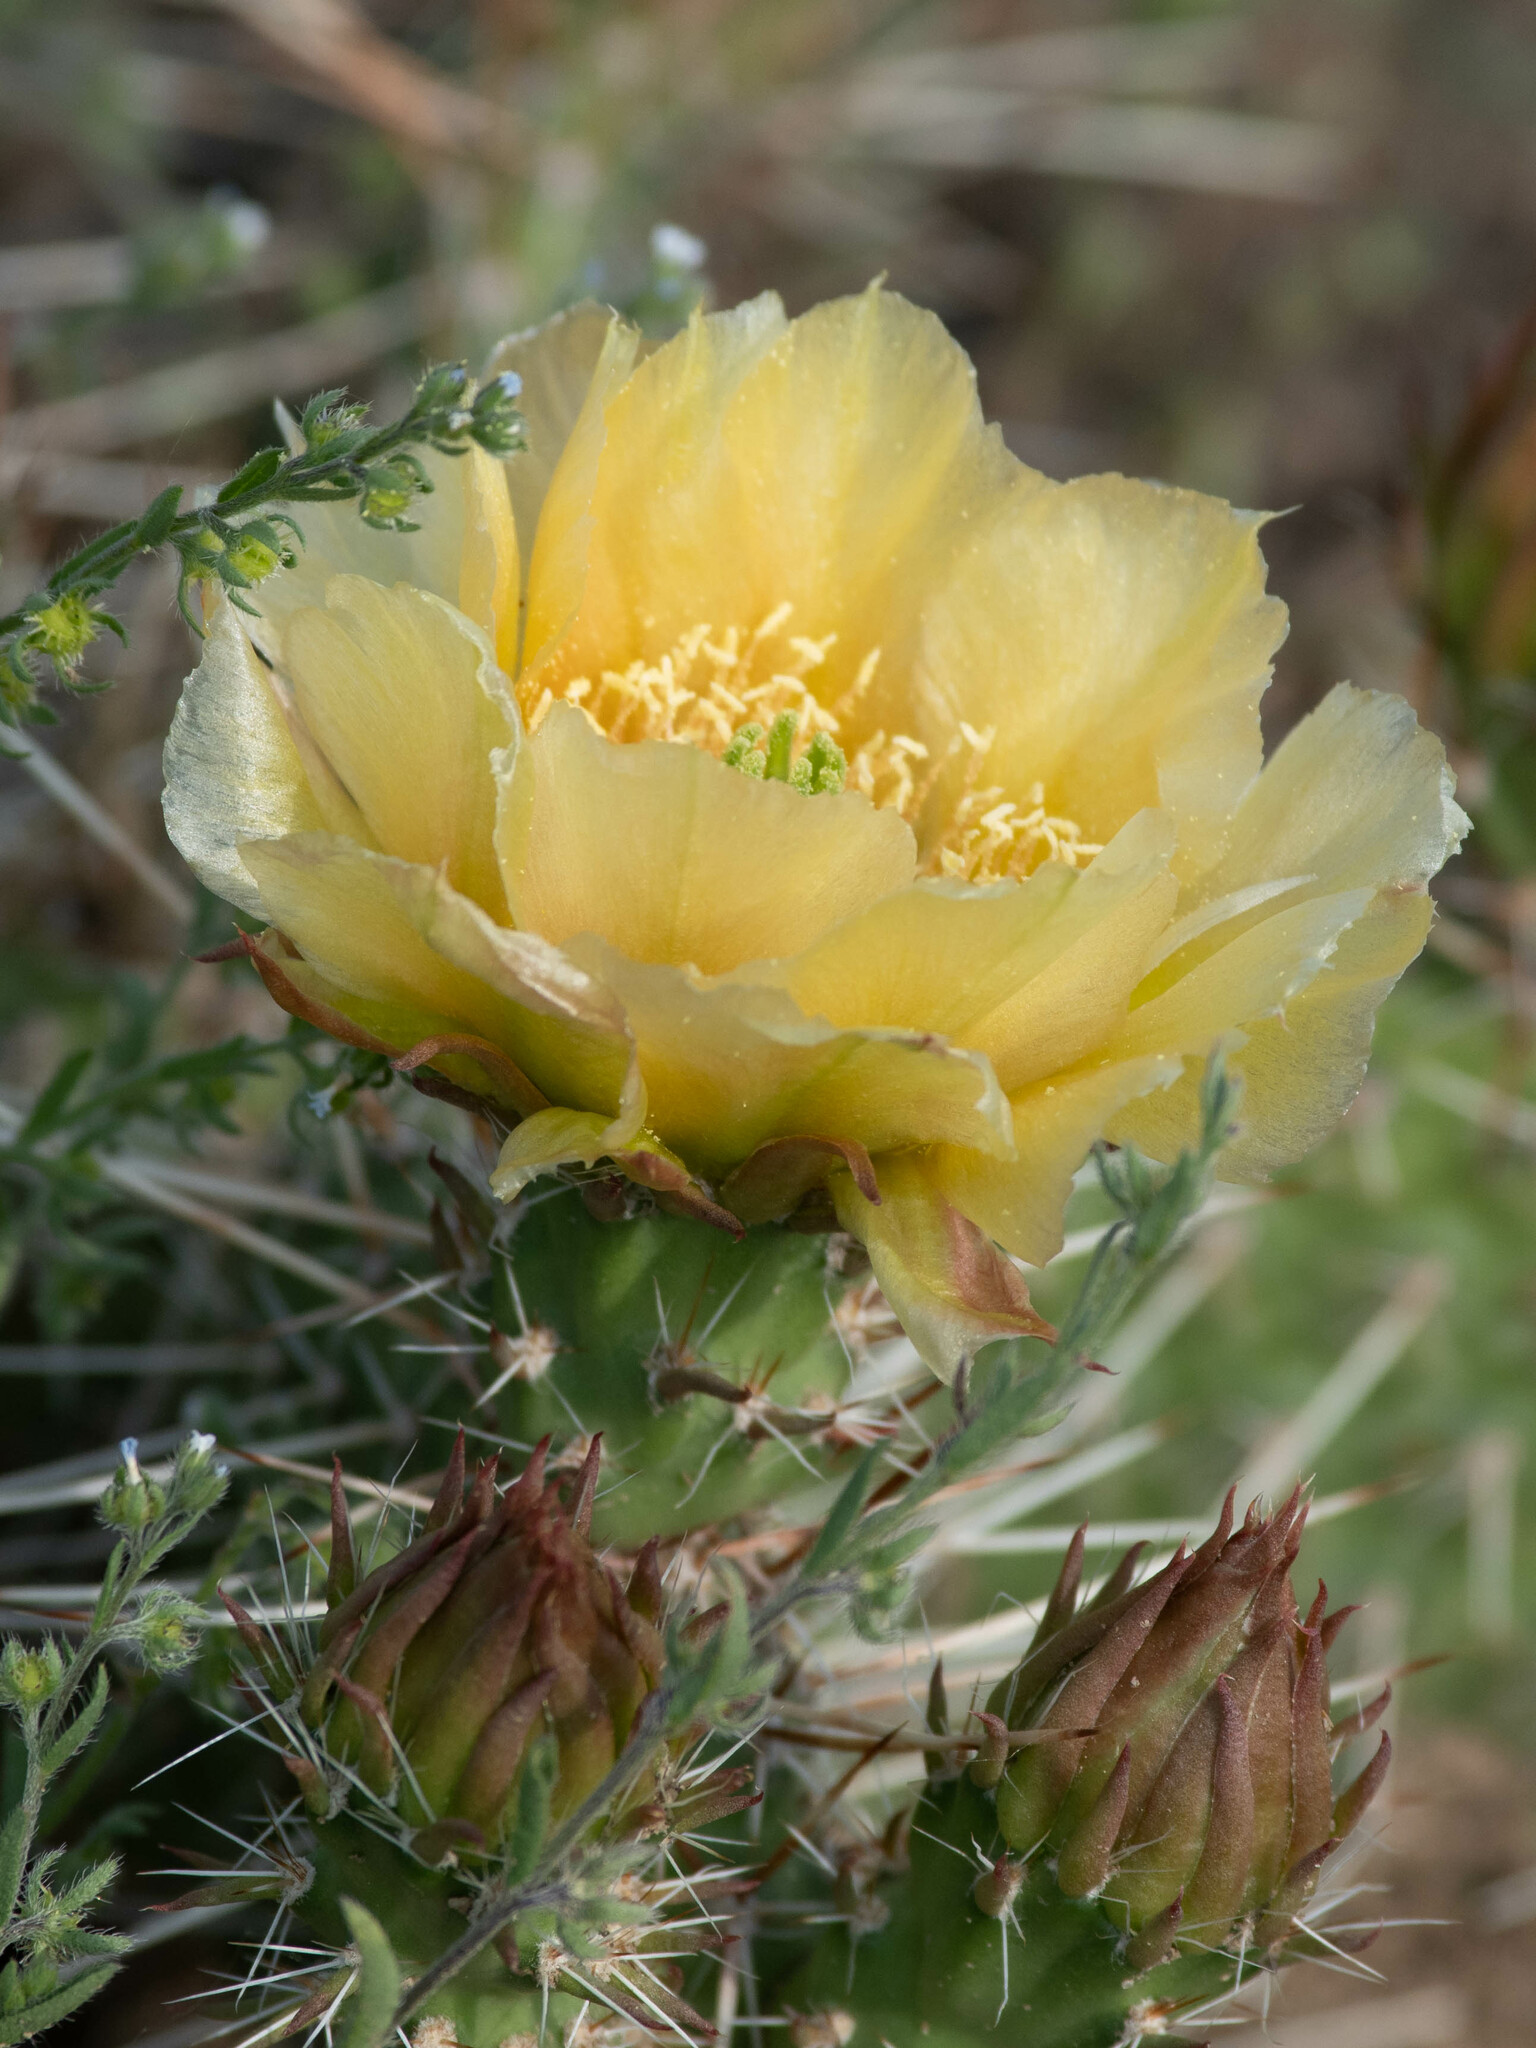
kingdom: Plantae
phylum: Tracheophyta
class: Magnoliopsida
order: Caryophyllales
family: Cactaceae
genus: Opuntia
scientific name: Opuntia polyacantha
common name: Plains prickly-pear
